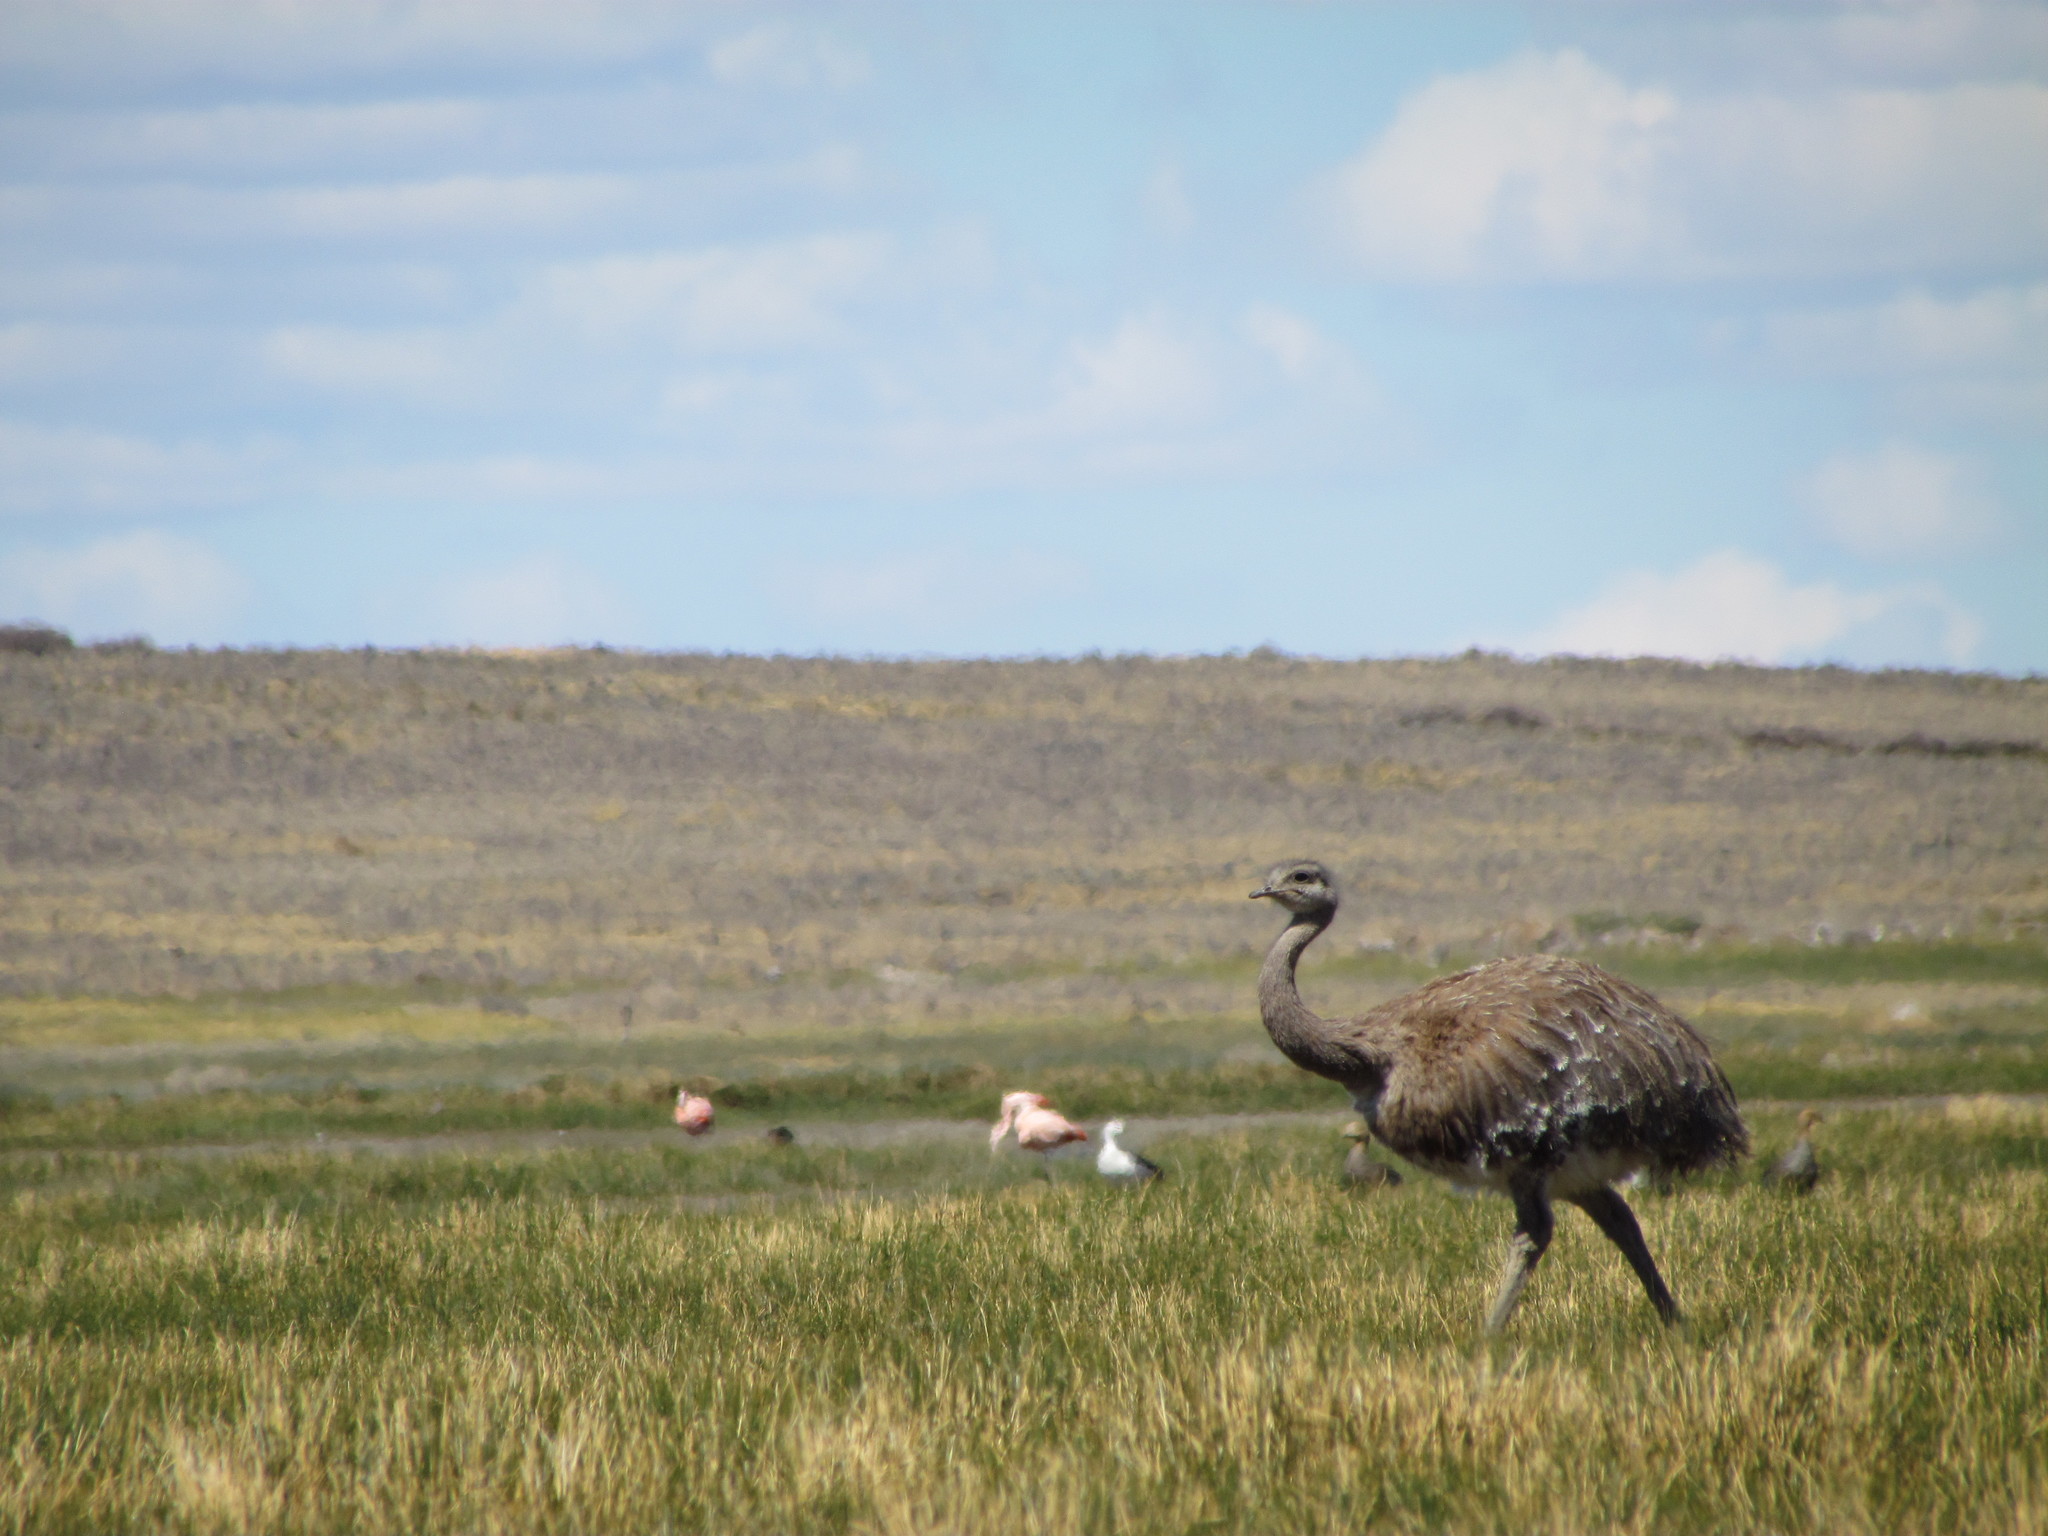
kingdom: Animalia
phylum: Chordata
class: Aves
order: Rheiformes
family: Rheidae
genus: Rhea
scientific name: Rhea pennata
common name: Lesser rhea
